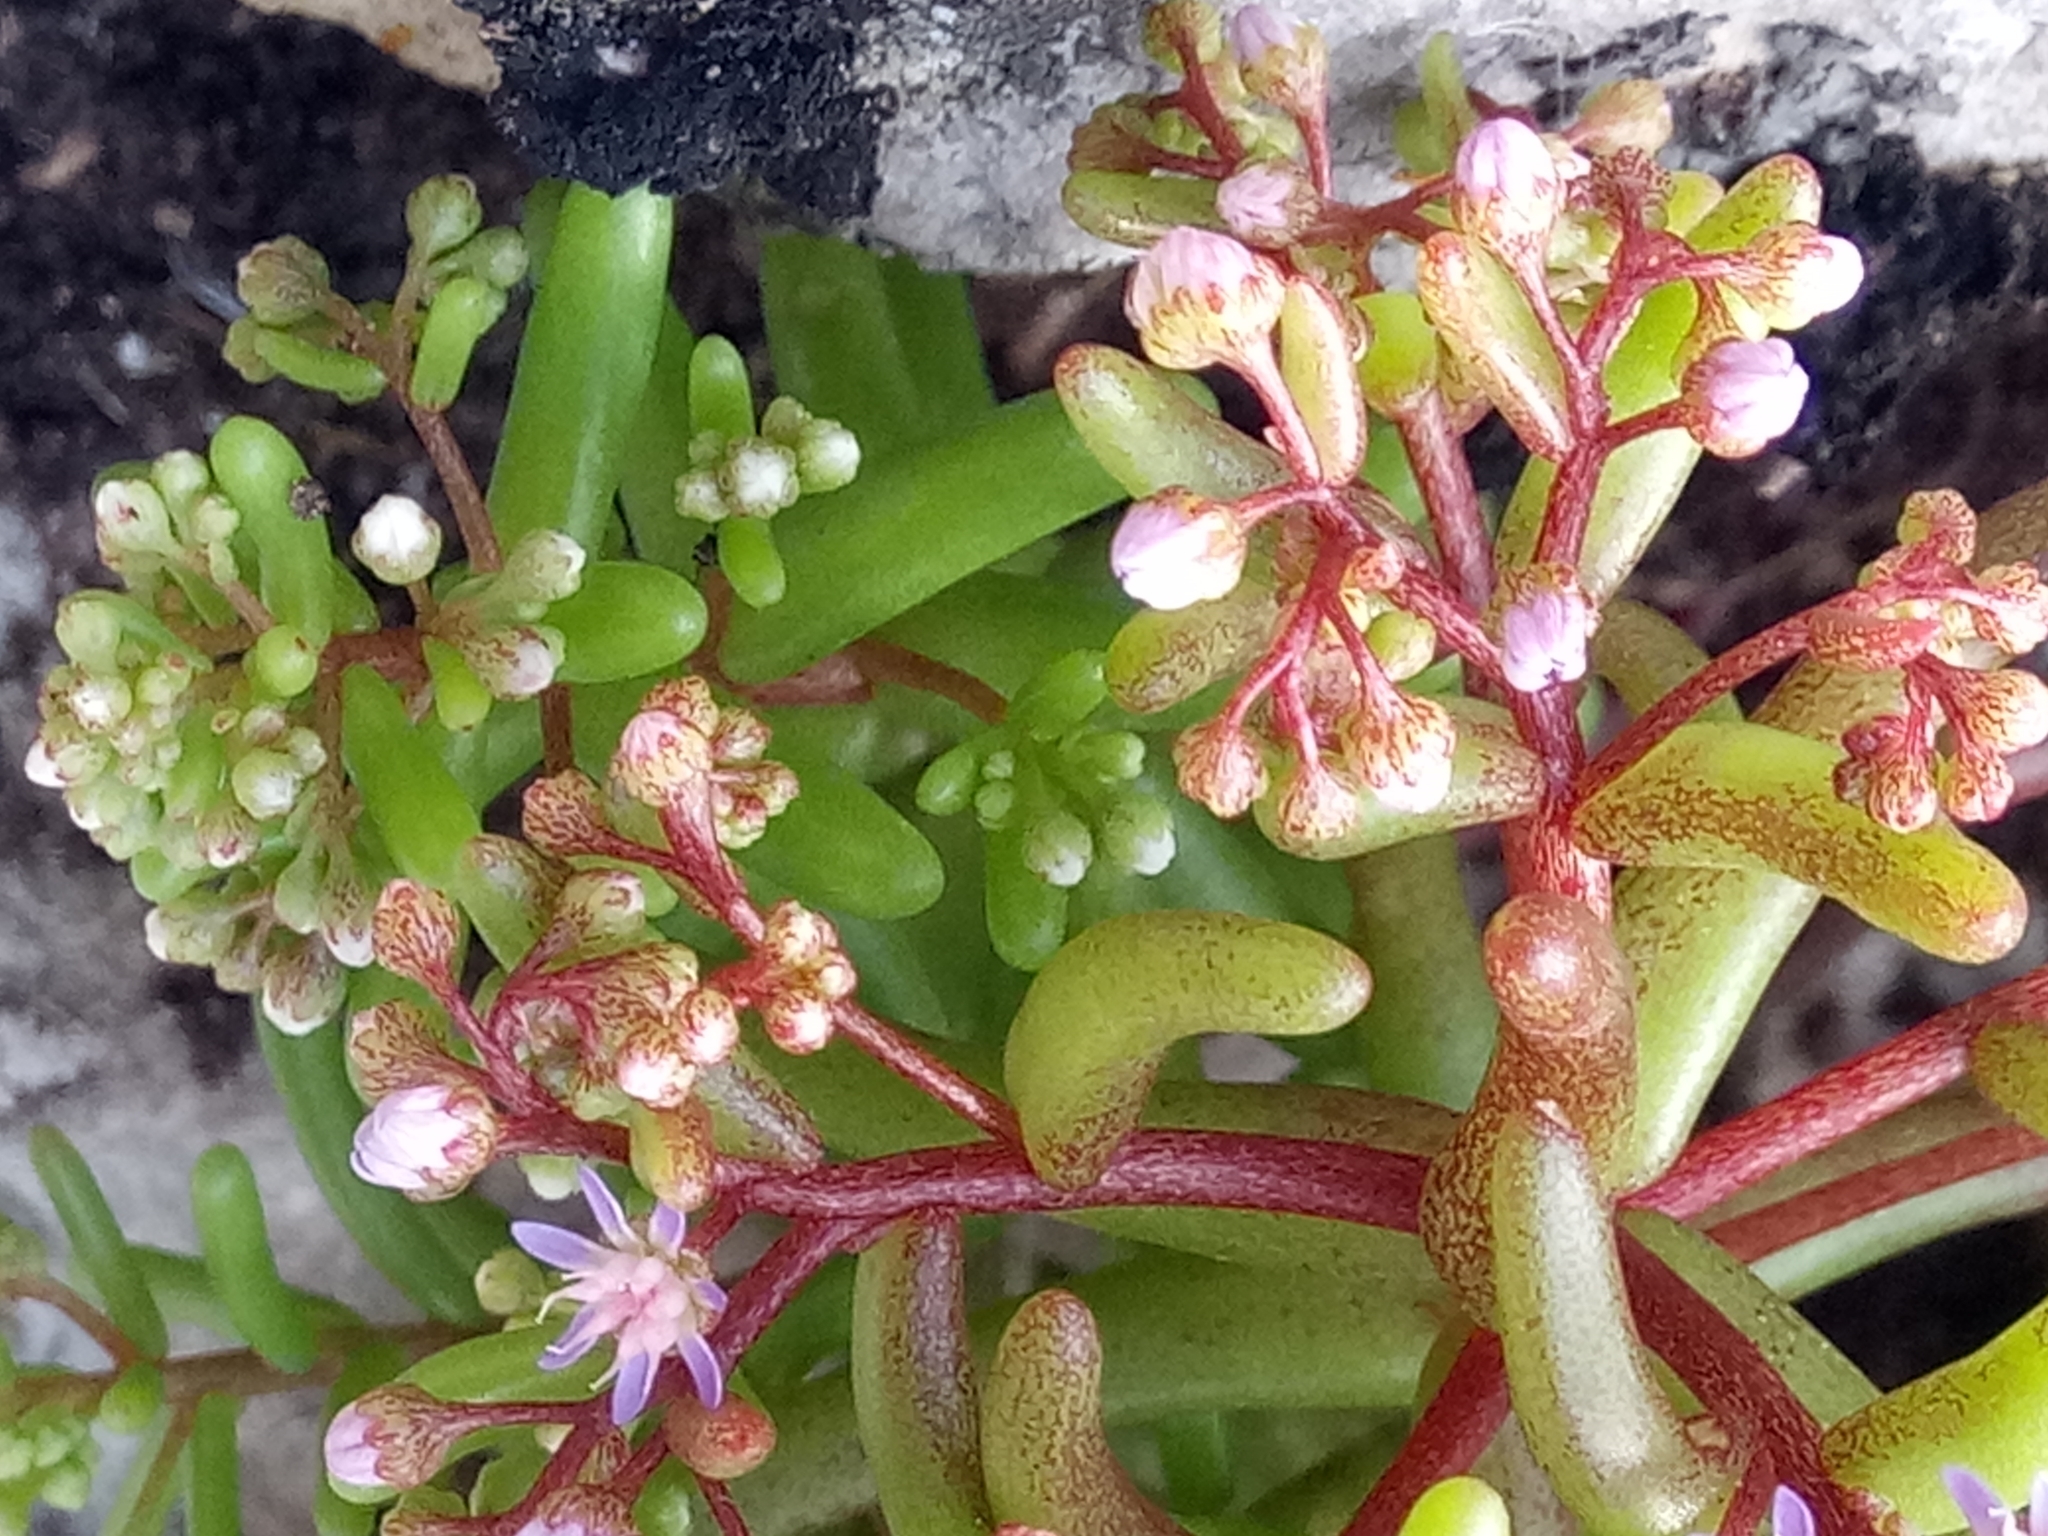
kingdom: Plantae
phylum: Tracheophyta
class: Magnoliopsida
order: Saxifragales
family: Crassulaceae
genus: Sedum
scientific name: Sedum caeruleum
